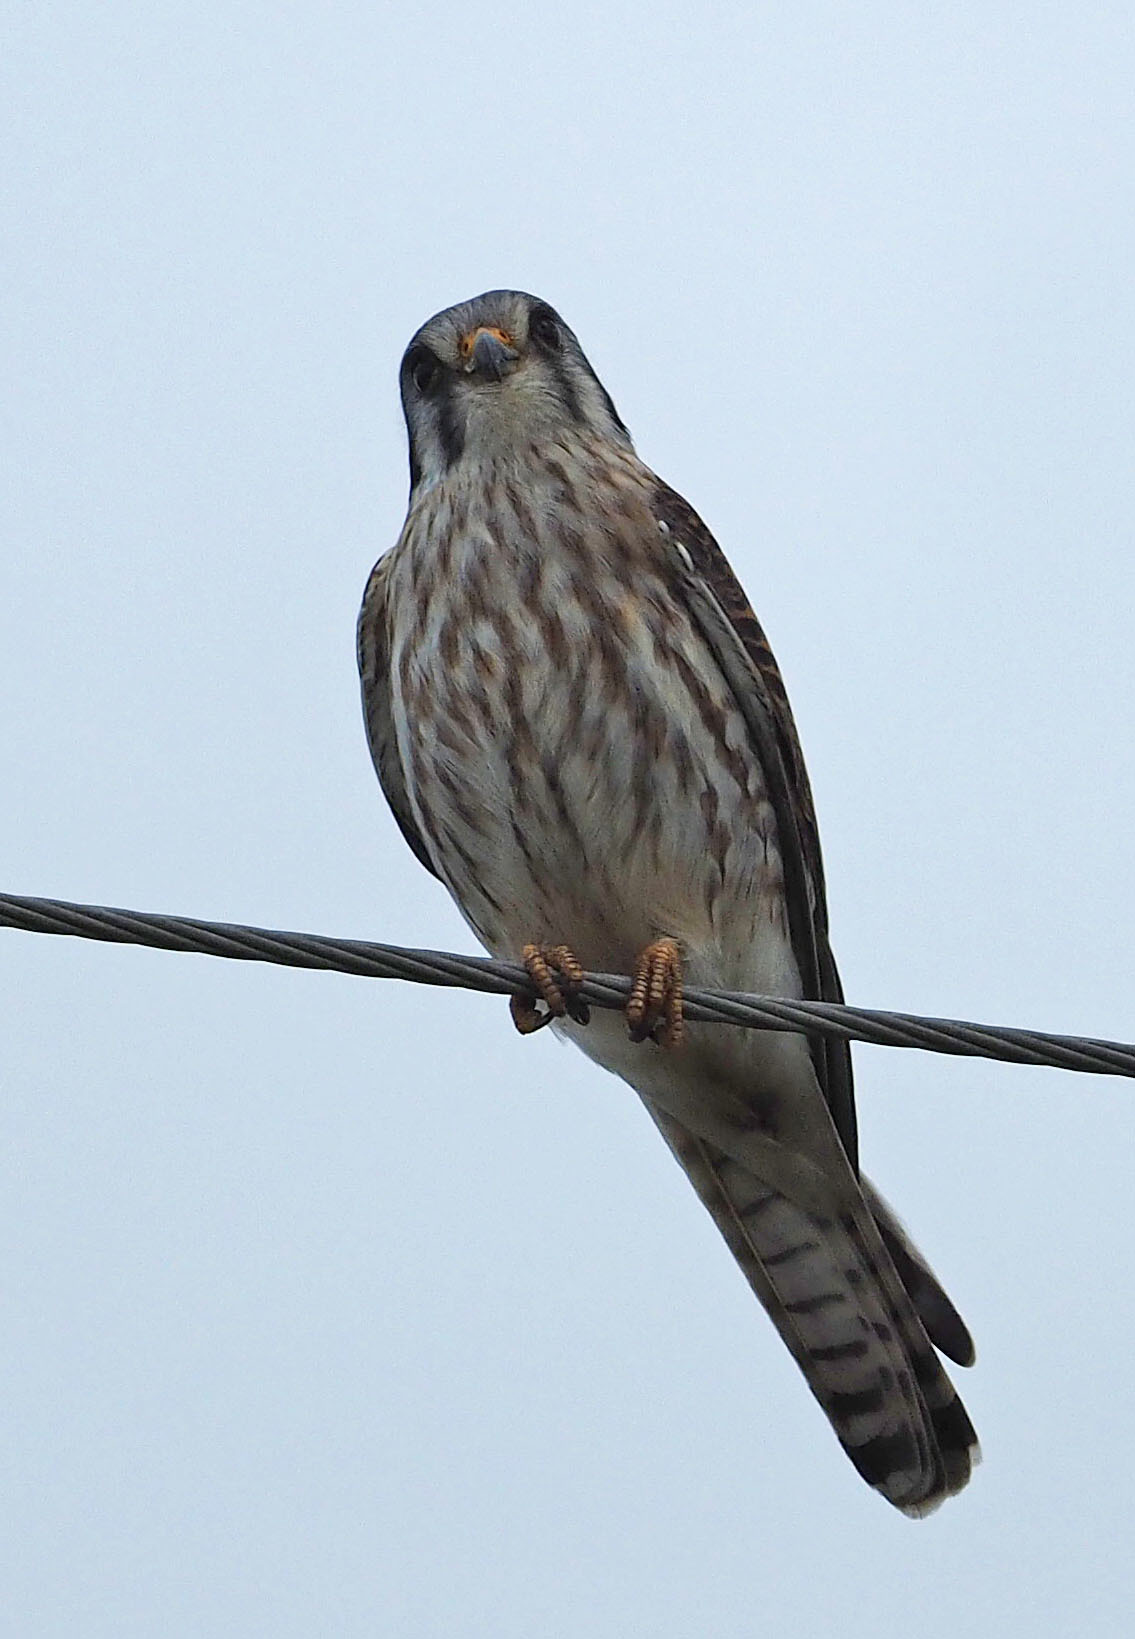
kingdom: Animalia
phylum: Chordata
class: Aves
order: Falconiformes
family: Falconidae
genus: Falco
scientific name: Falco sparverius
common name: American kestrel
